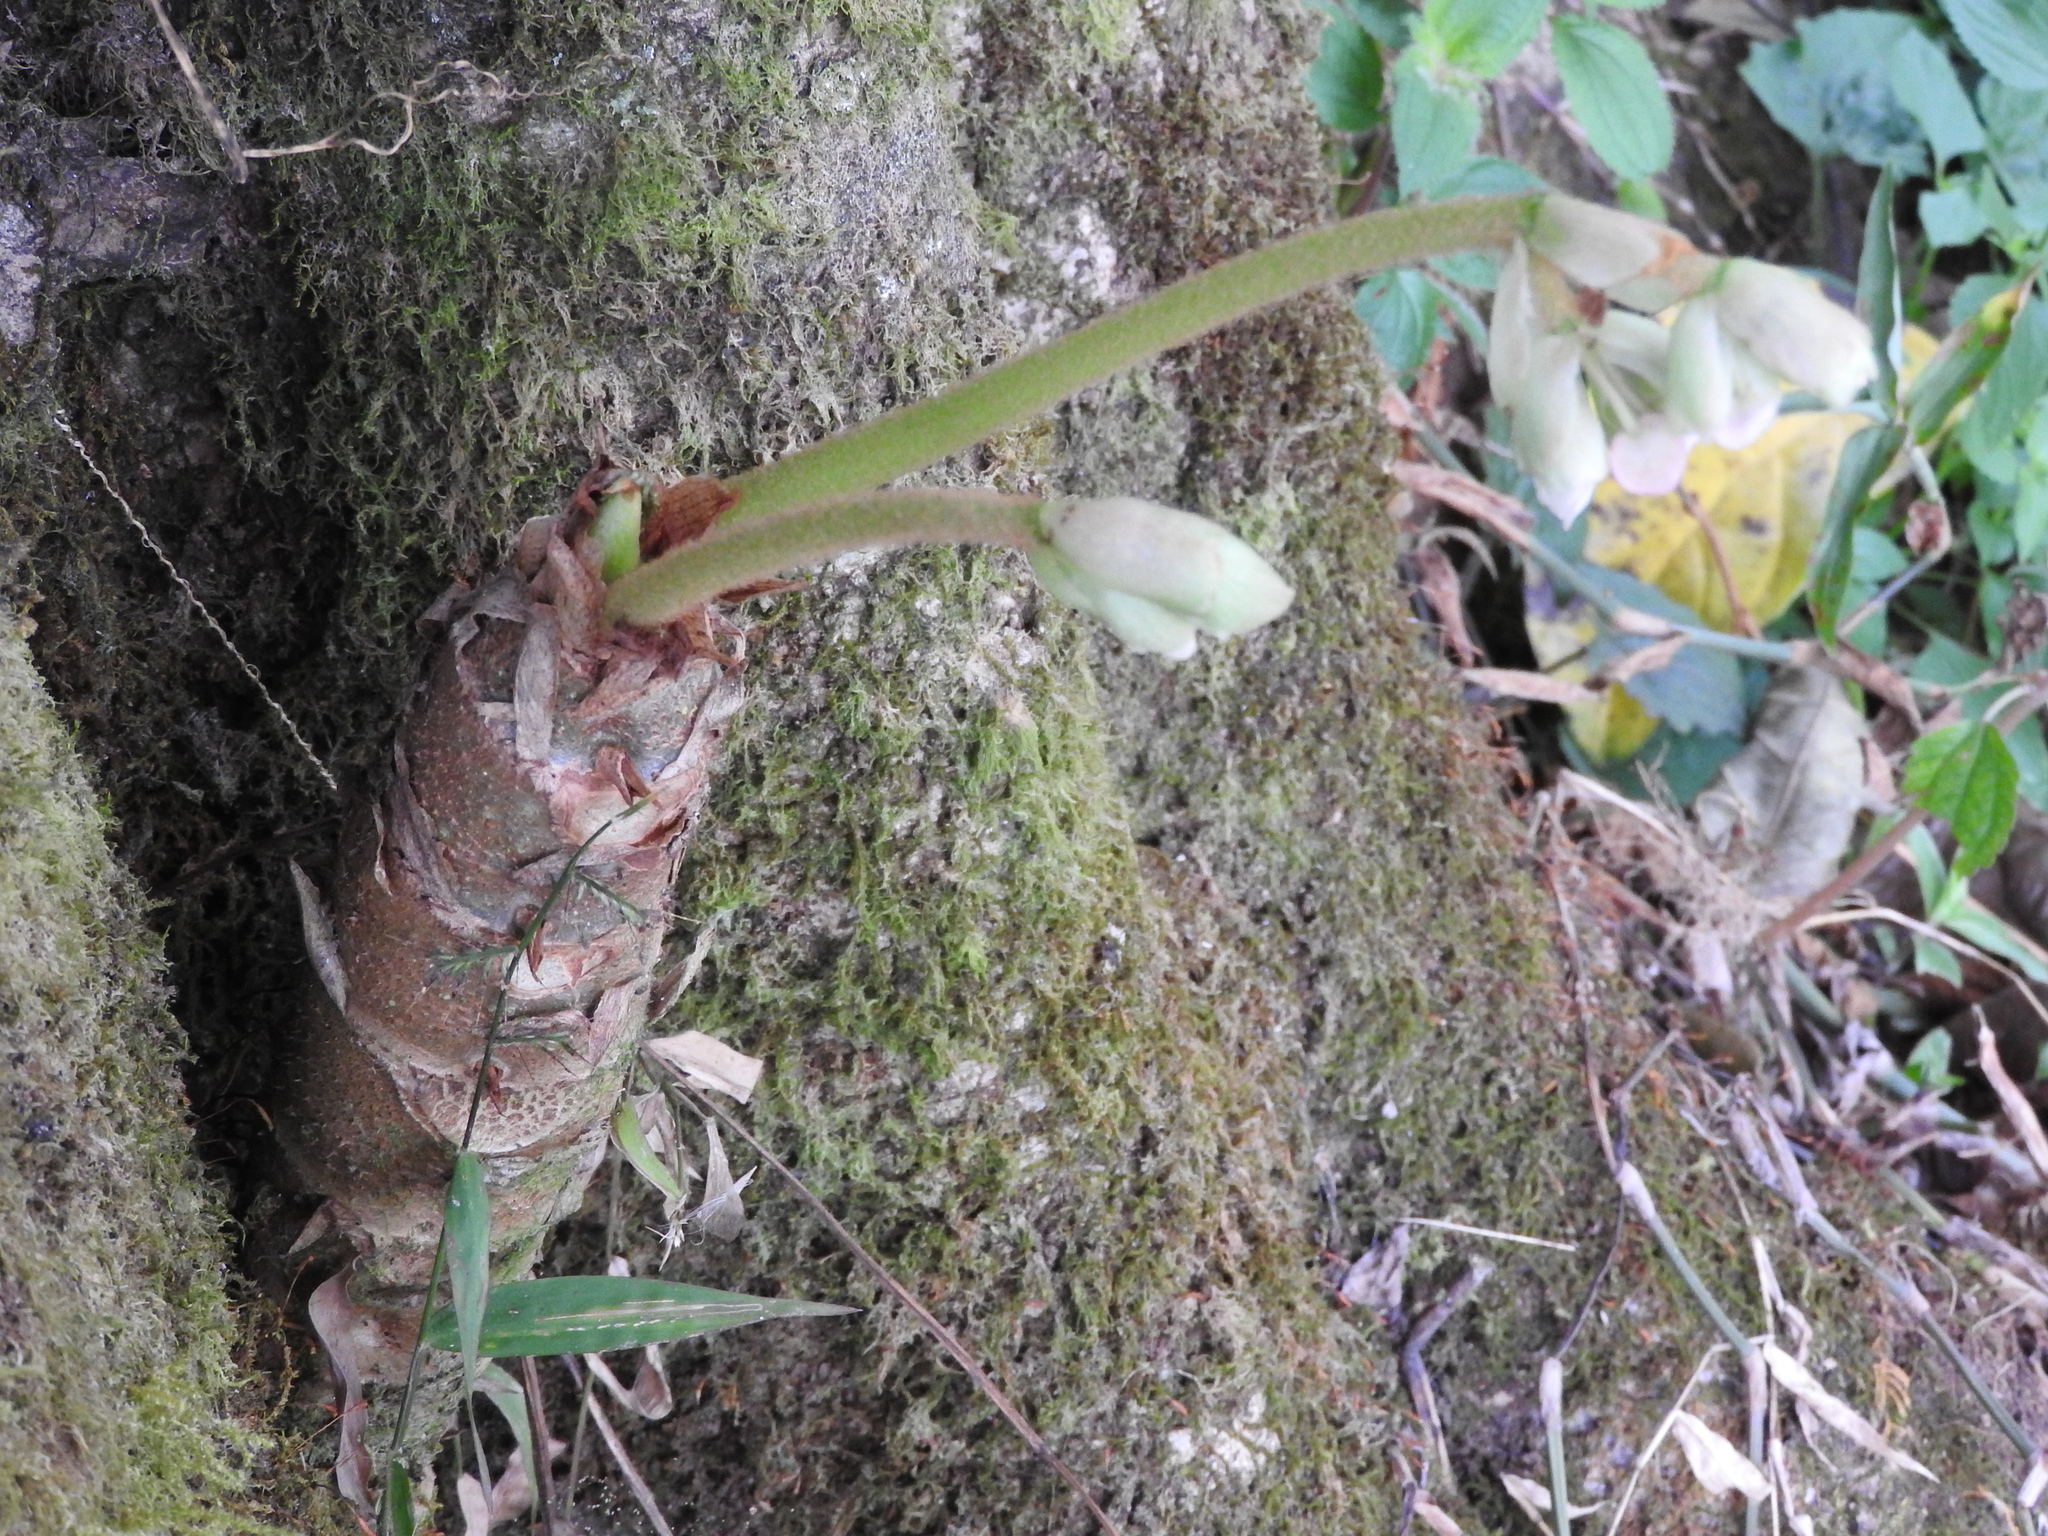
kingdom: Plantae
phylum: Tracheophyta
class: Magnoliopsida
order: Cucurbitales
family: Begoniaceae
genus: Begonia
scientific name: Begonia crassicaulis
